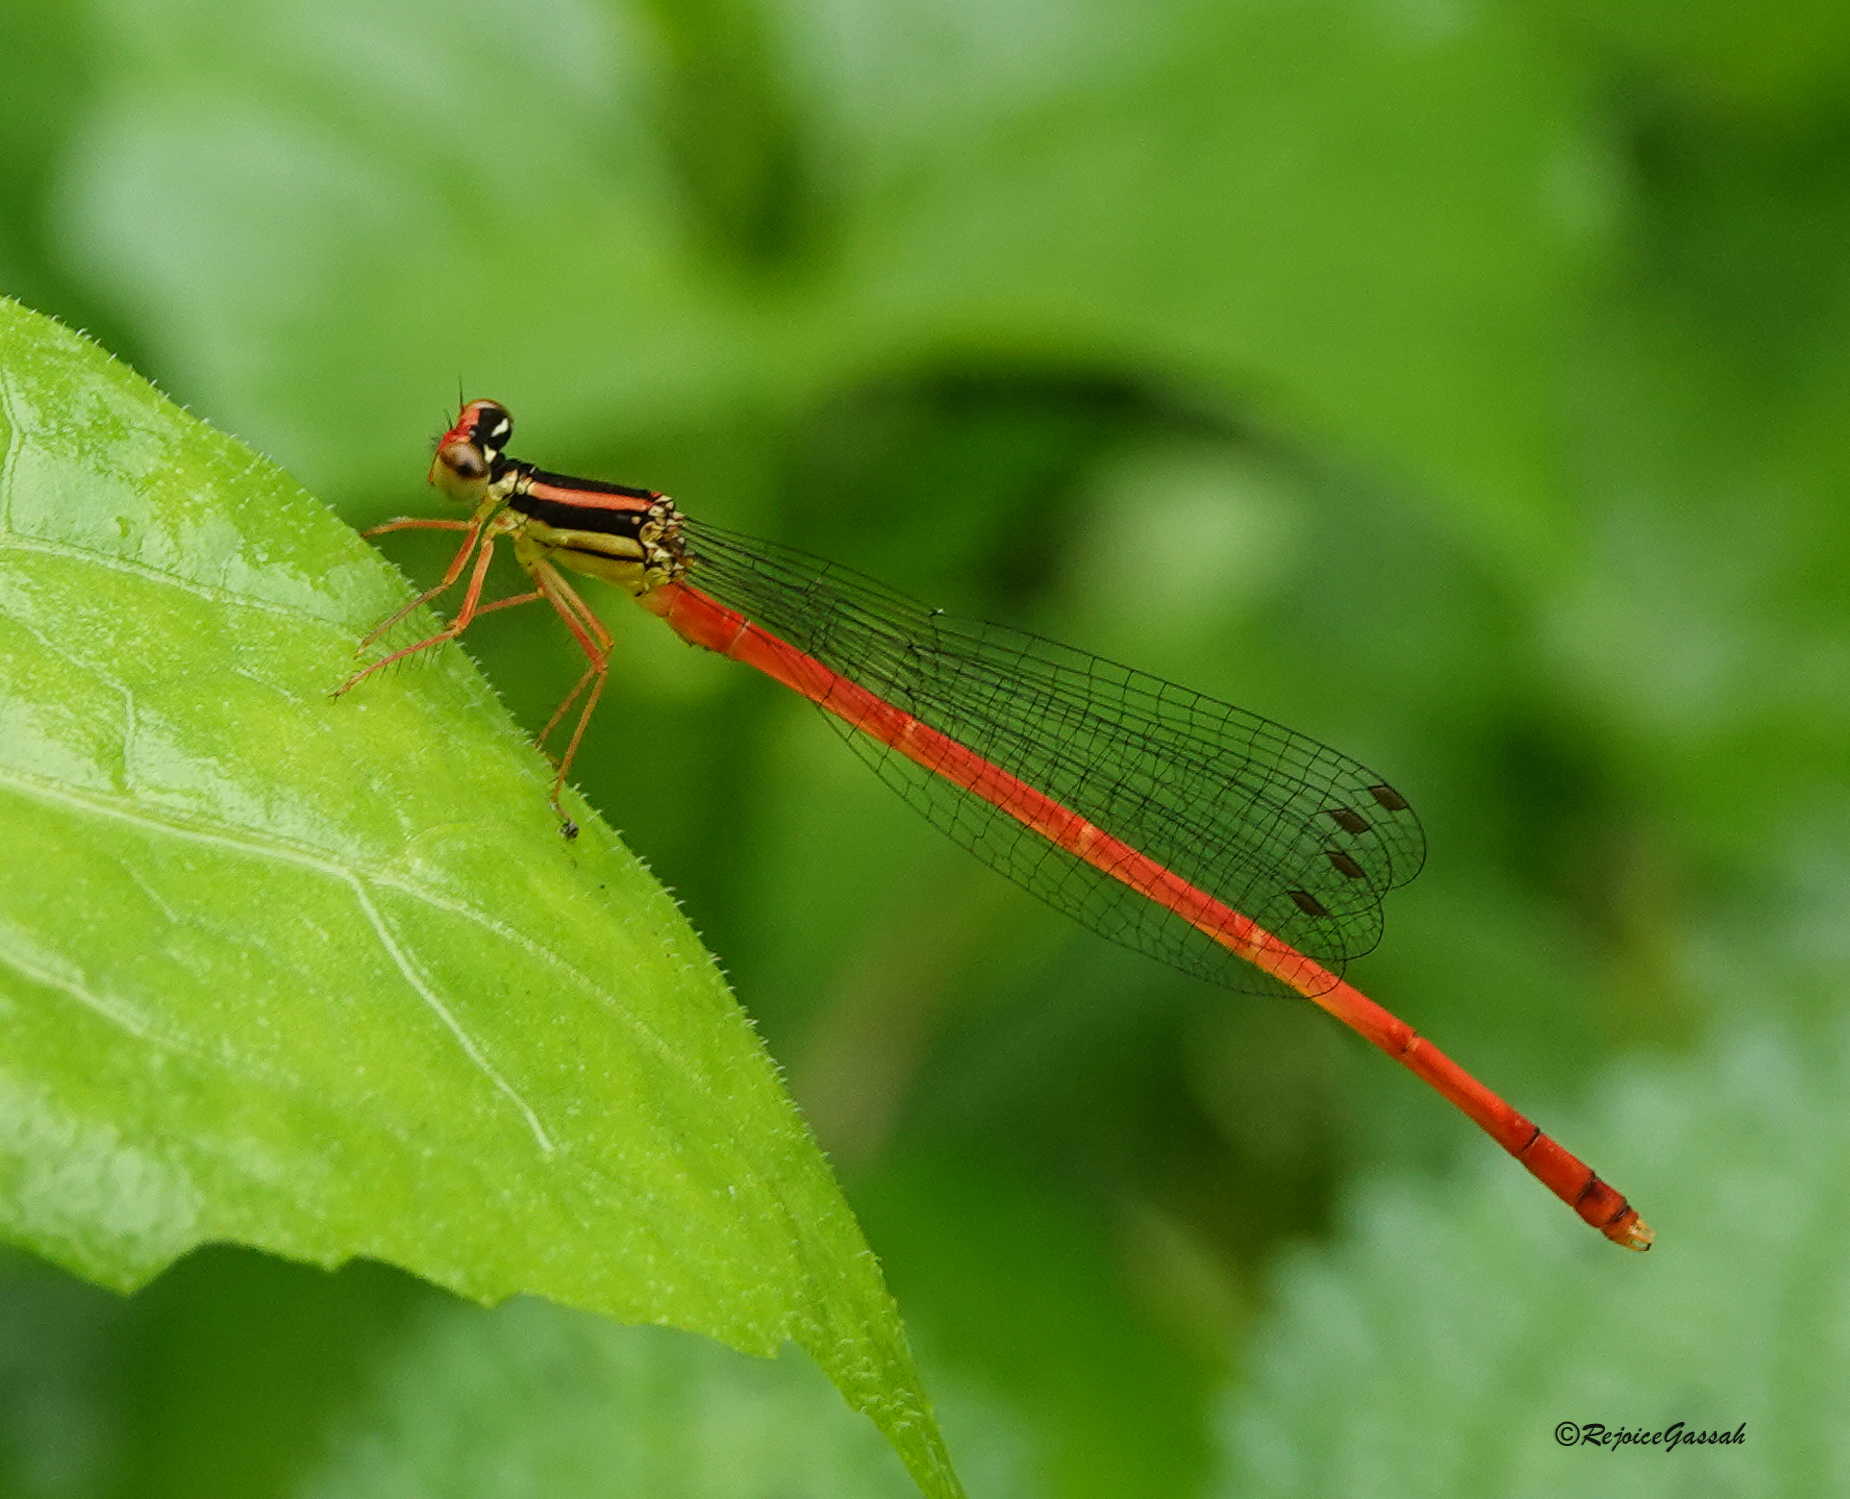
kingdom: Animalia
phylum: Arthropoda
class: Insecta
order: Odonata
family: Platycnemididae
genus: Calicnemia
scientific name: Calicnemia eximia
